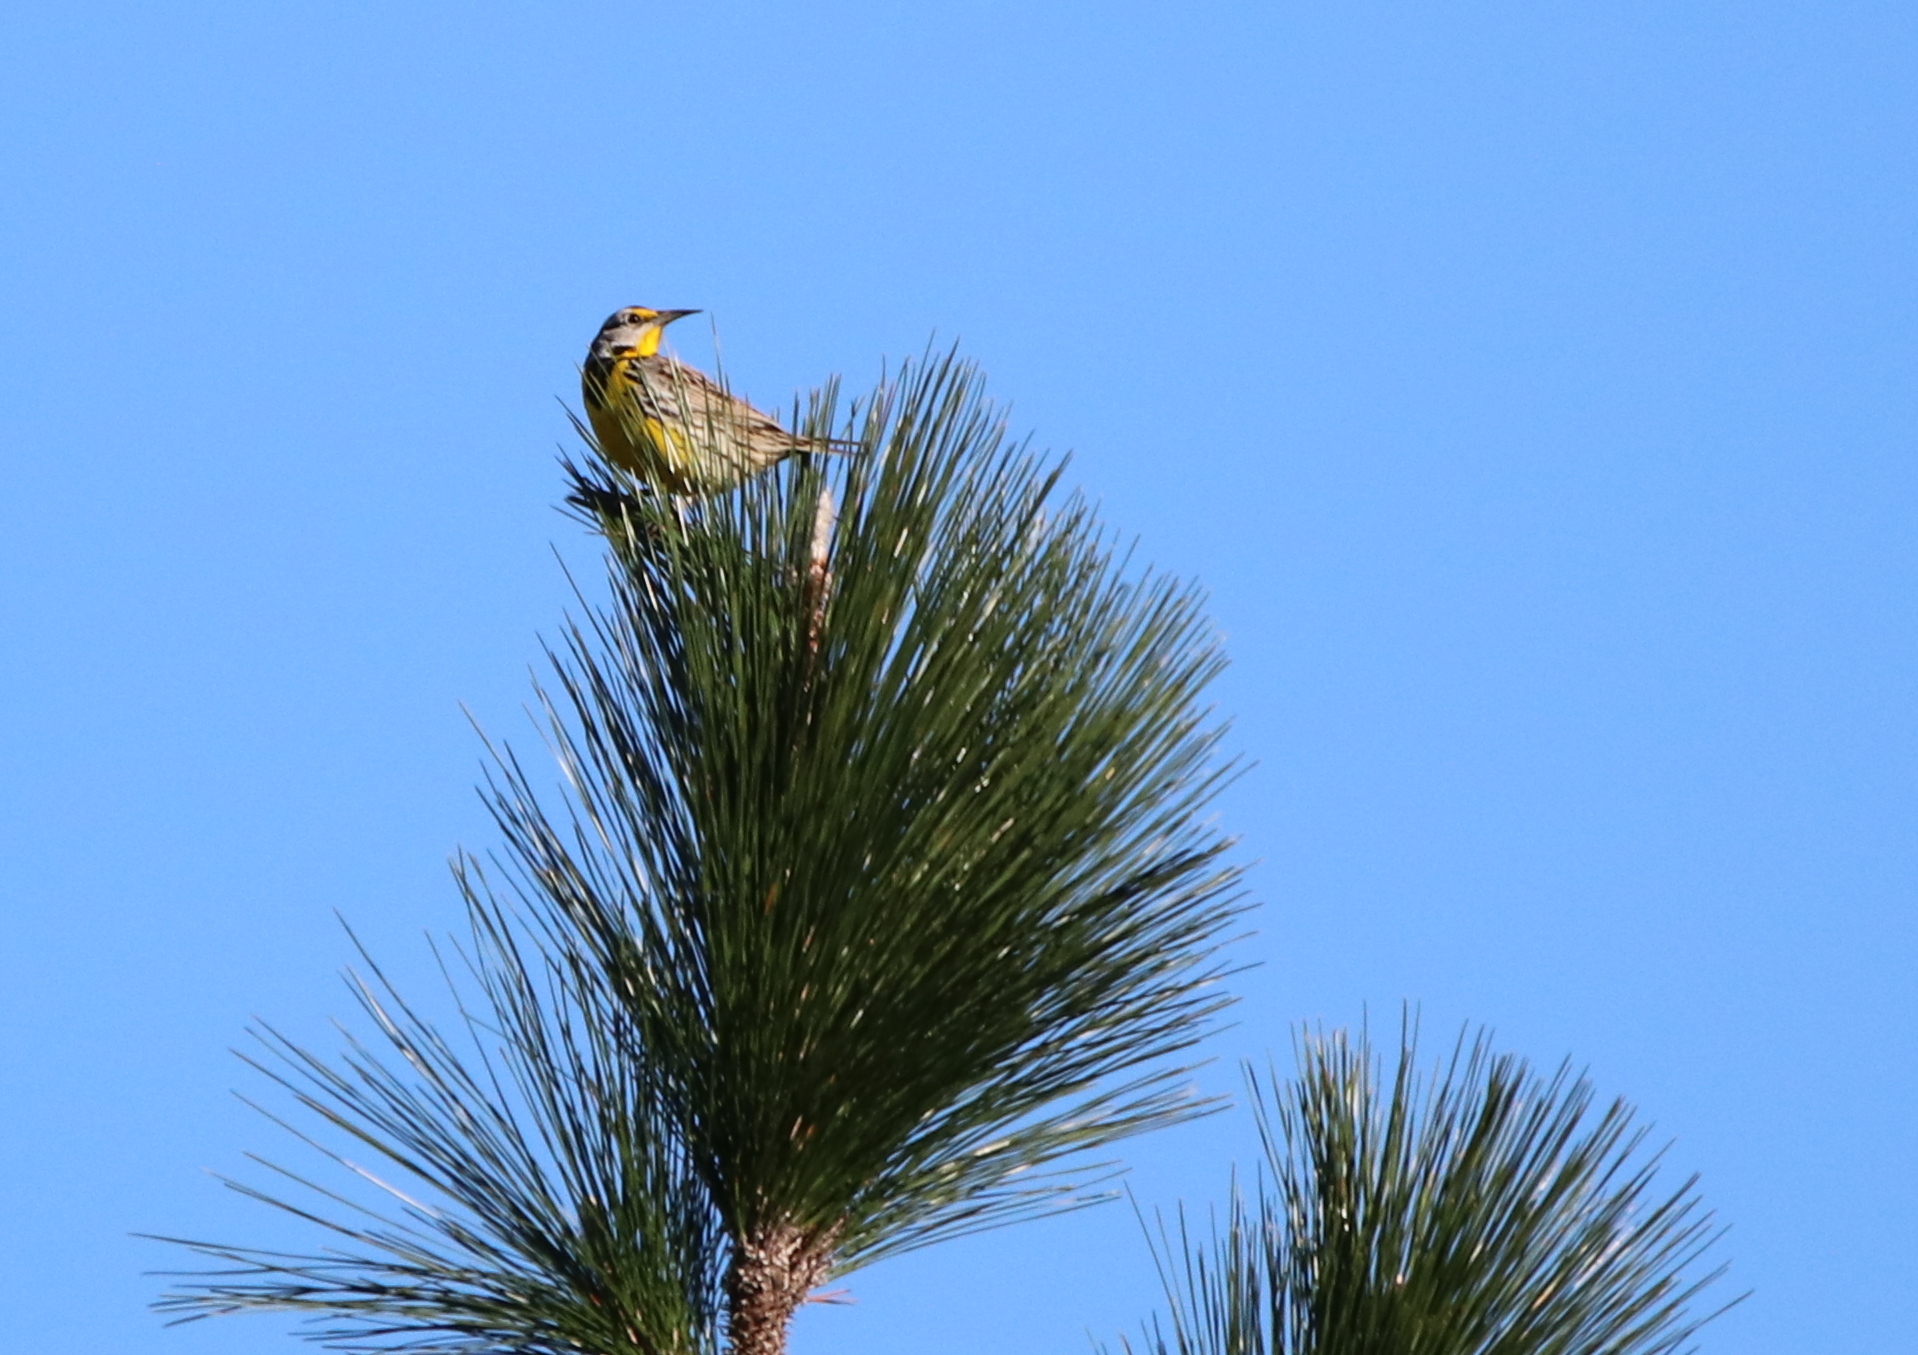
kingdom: Animalia
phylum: Chordata
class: Aves
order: Passeriformes
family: Icteridae
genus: Sturnella
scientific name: Sturnella magna
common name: Eastern meadowlark
